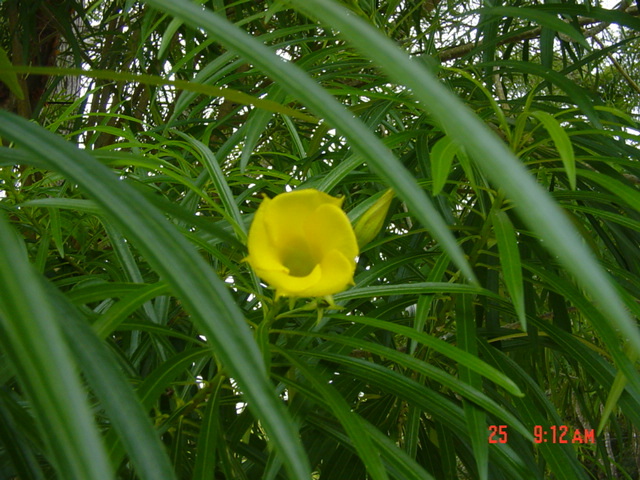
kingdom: Plantae
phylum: Tracheophyta
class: Magnoliopsida
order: Gentianales
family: Apocynaceae
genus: Cascabela
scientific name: Cascabela thevetia
